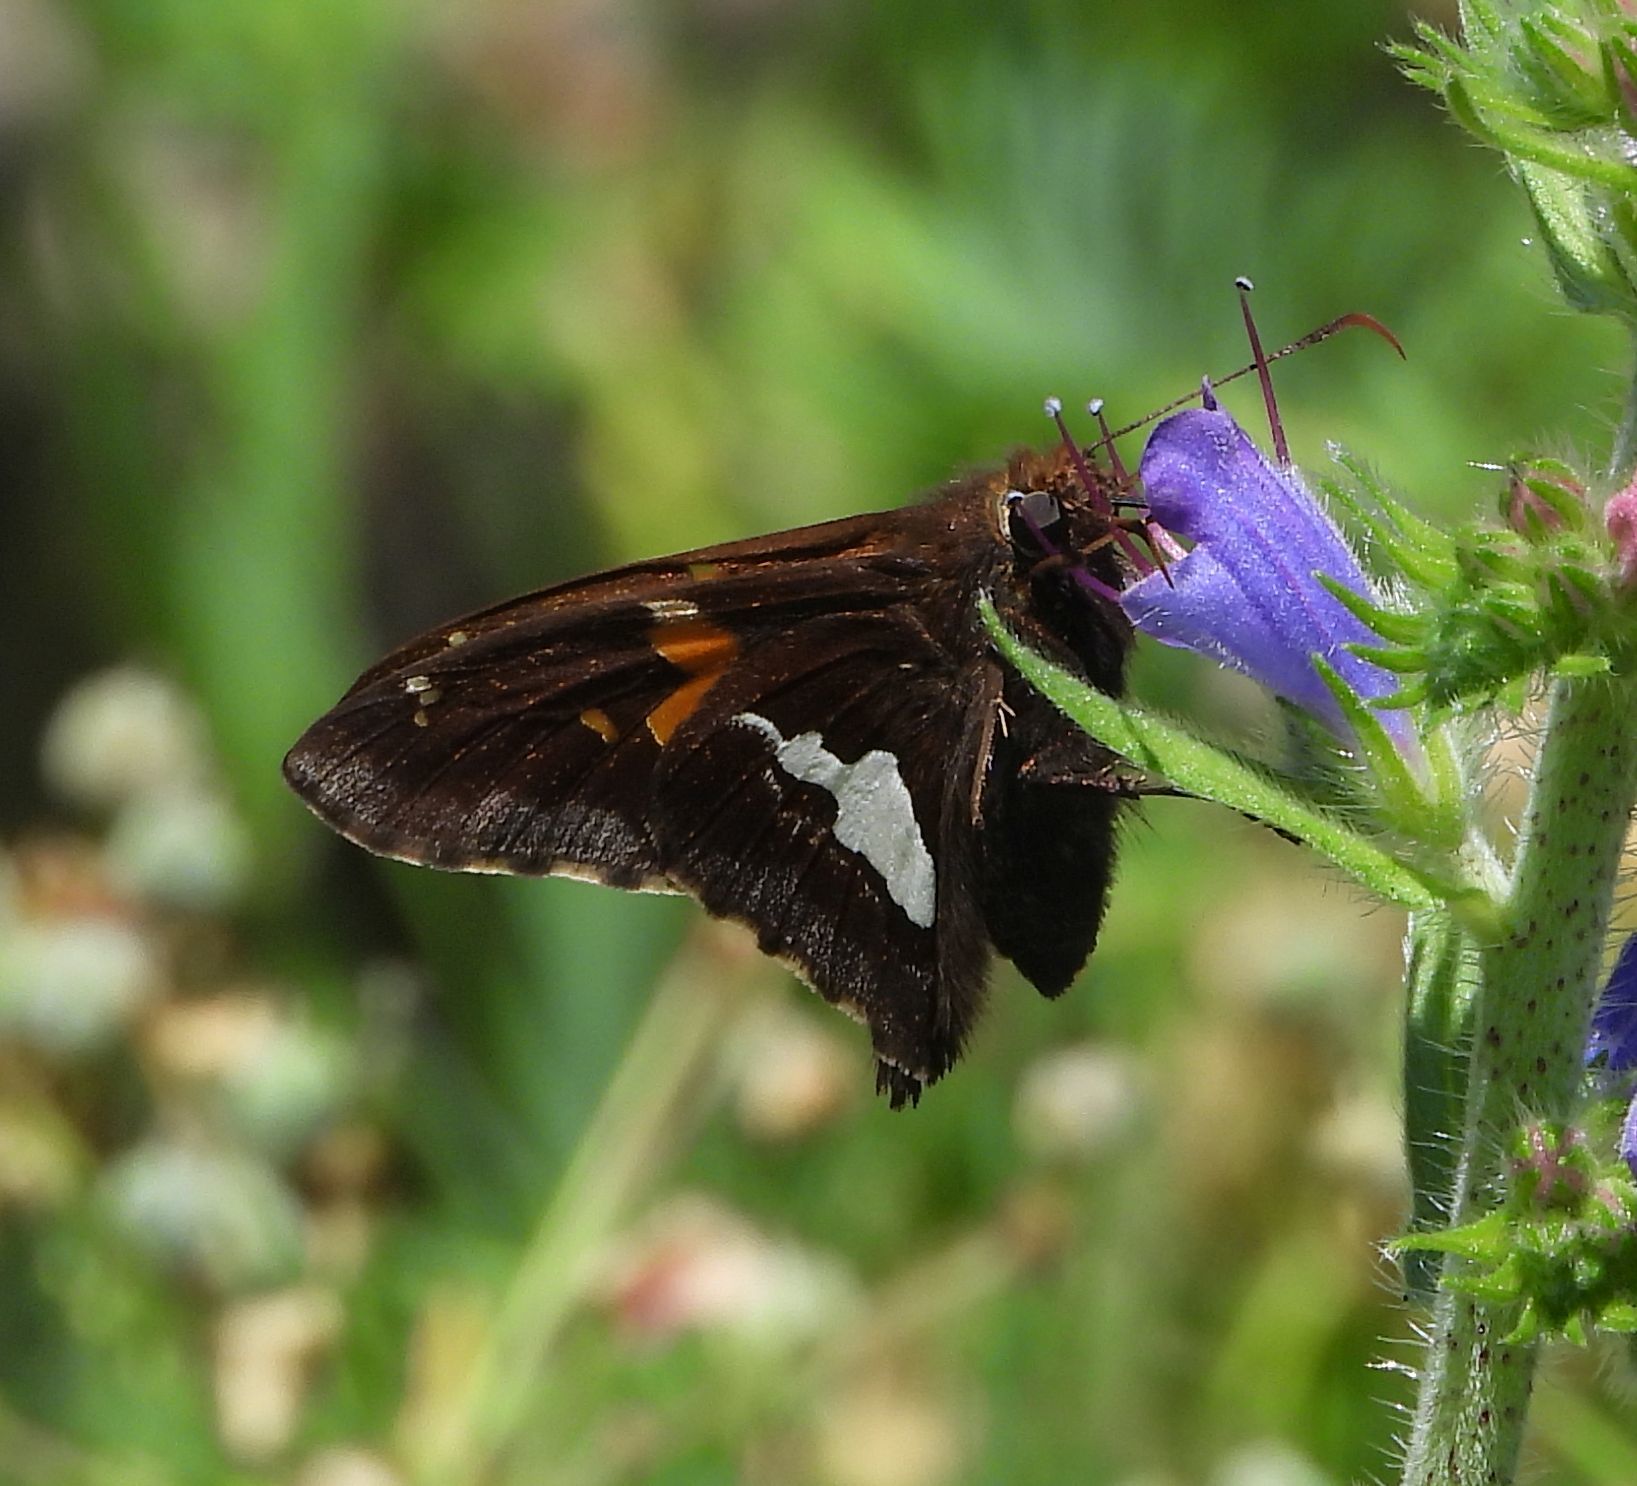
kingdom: Animalia
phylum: Arthropoda
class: Insecta
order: Lepidoptera
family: Hesperiidae
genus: Epargyreus
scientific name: Epargyreus clarus
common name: Silver-spotted skipper
